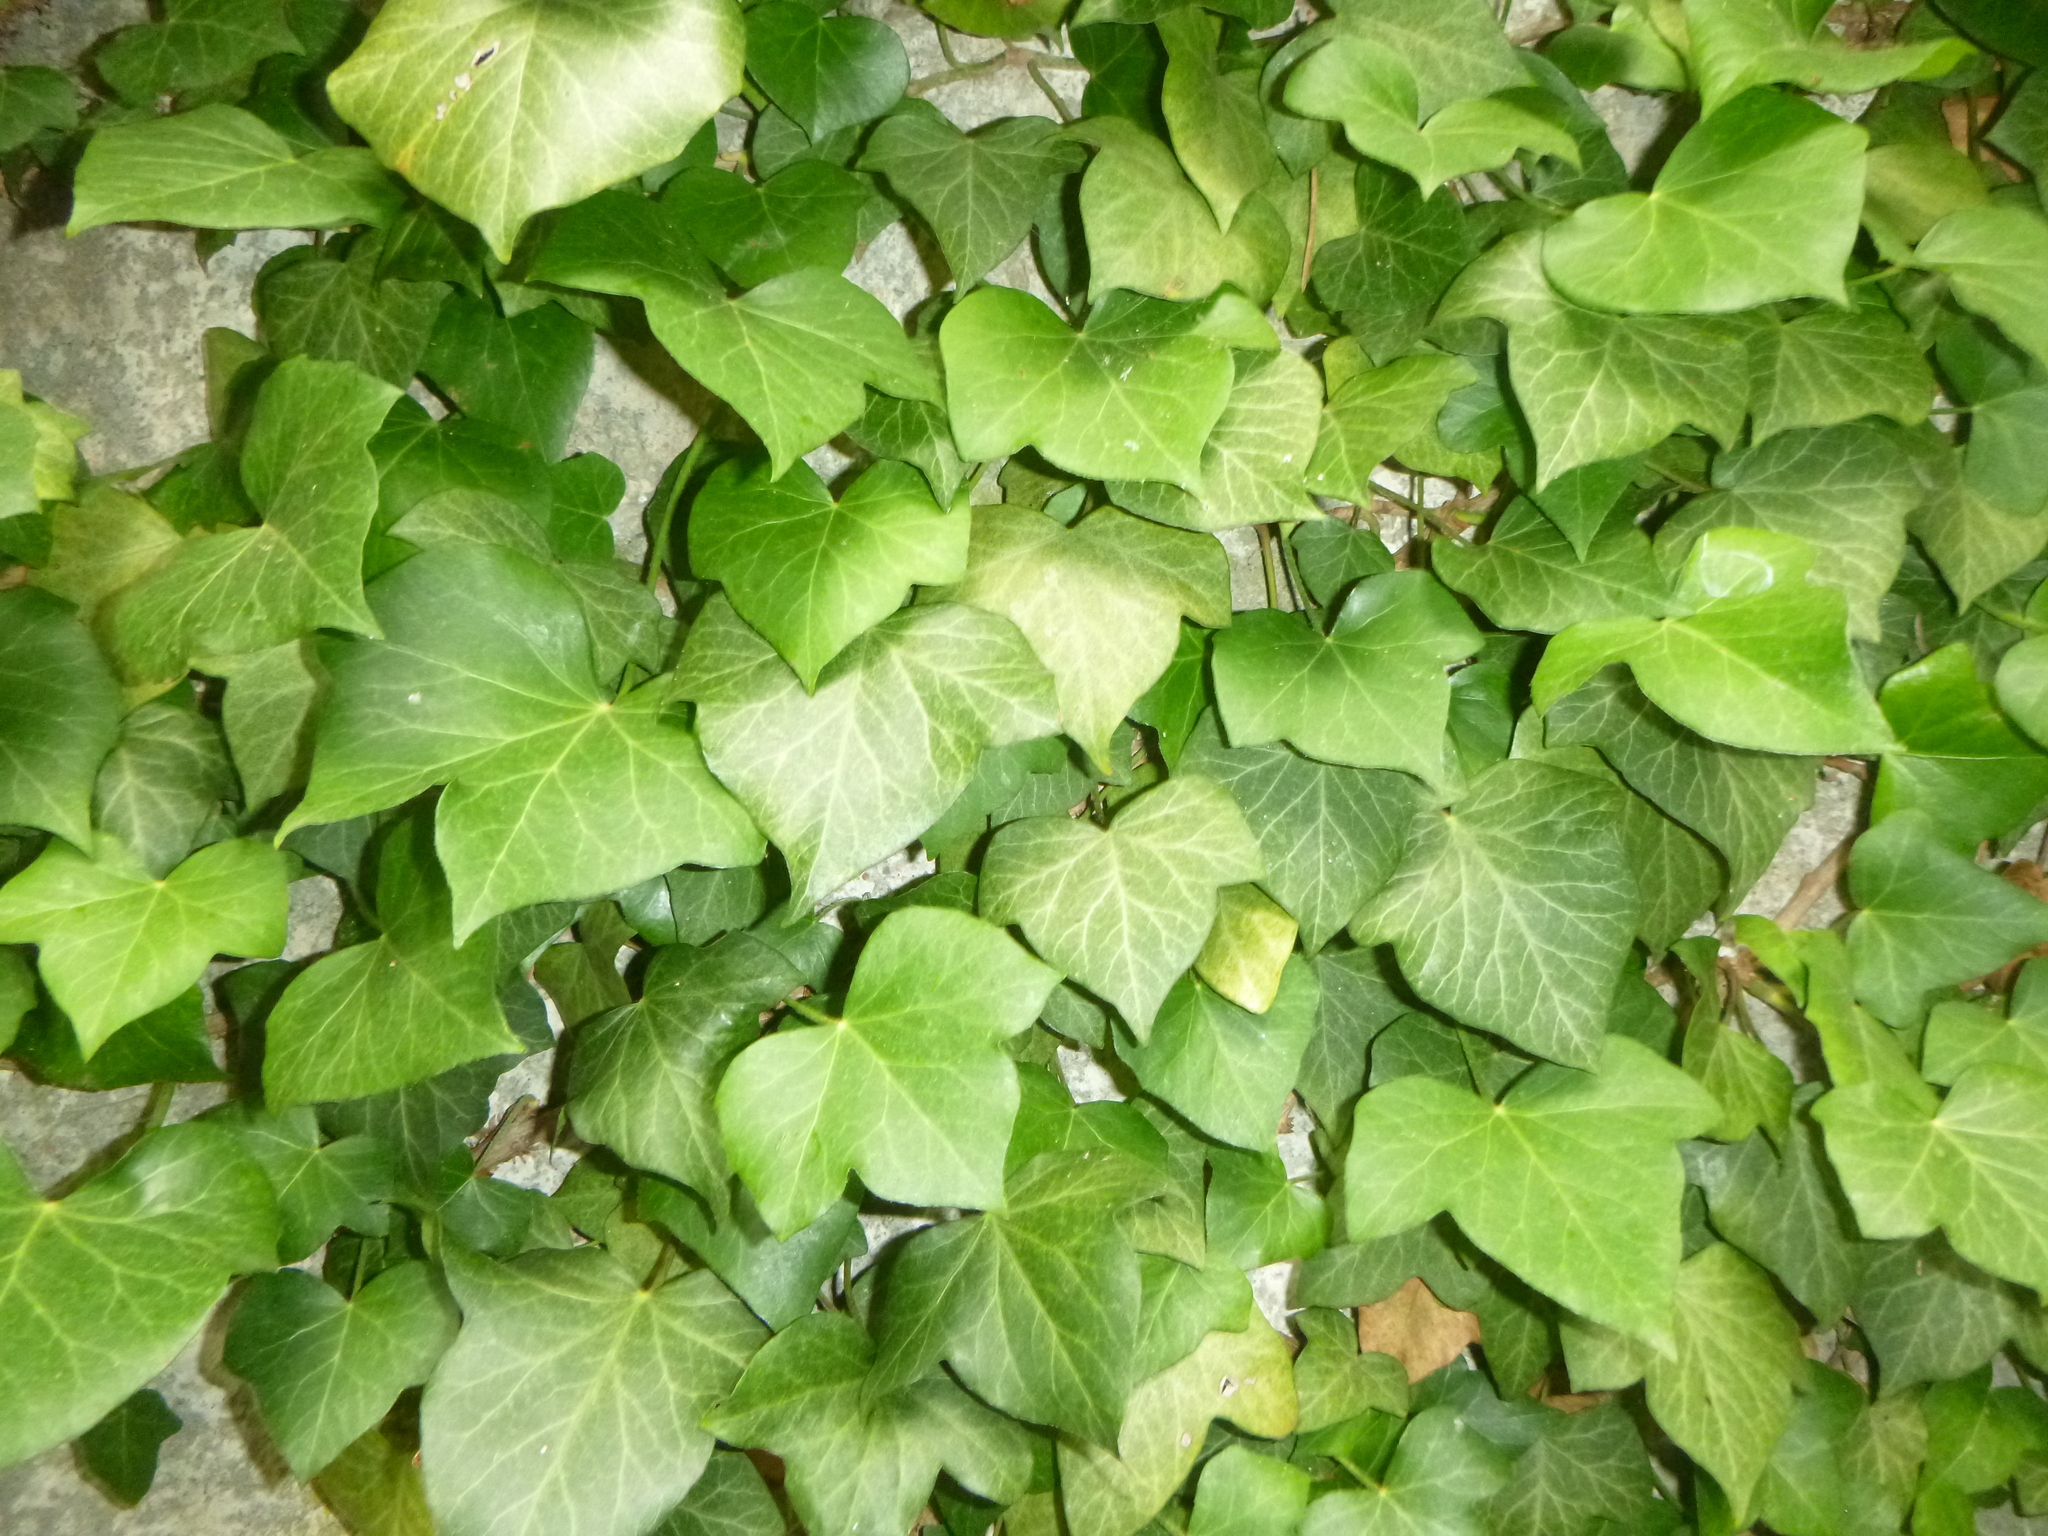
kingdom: Plantae
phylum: Tracheophyta
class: Magnoliopsida
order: Apiales
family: Araliaceae
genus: Hedera
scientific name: Hedera helix
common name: Ivy
